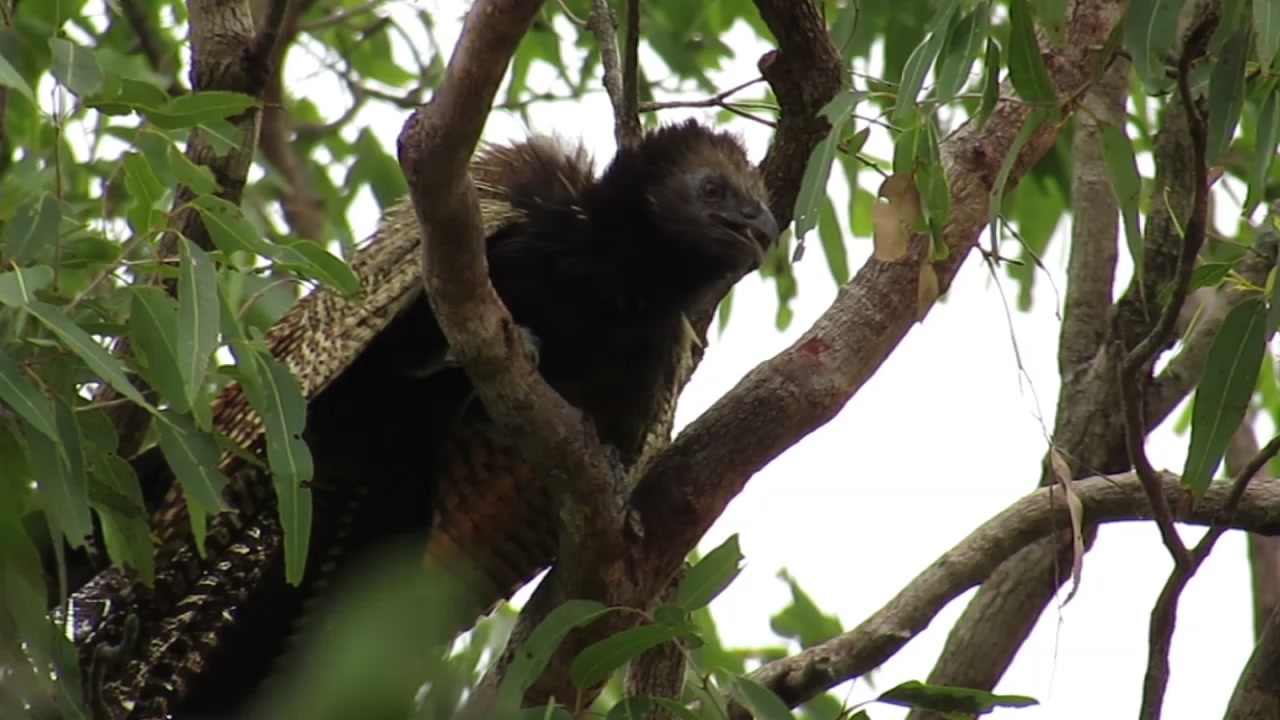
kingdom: Animalia
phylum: Chordata
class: Aves
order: Cuculiformes
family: Cuculidae
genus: Centropus
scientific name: Centropus phasianinus
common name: Pheasant coucal
